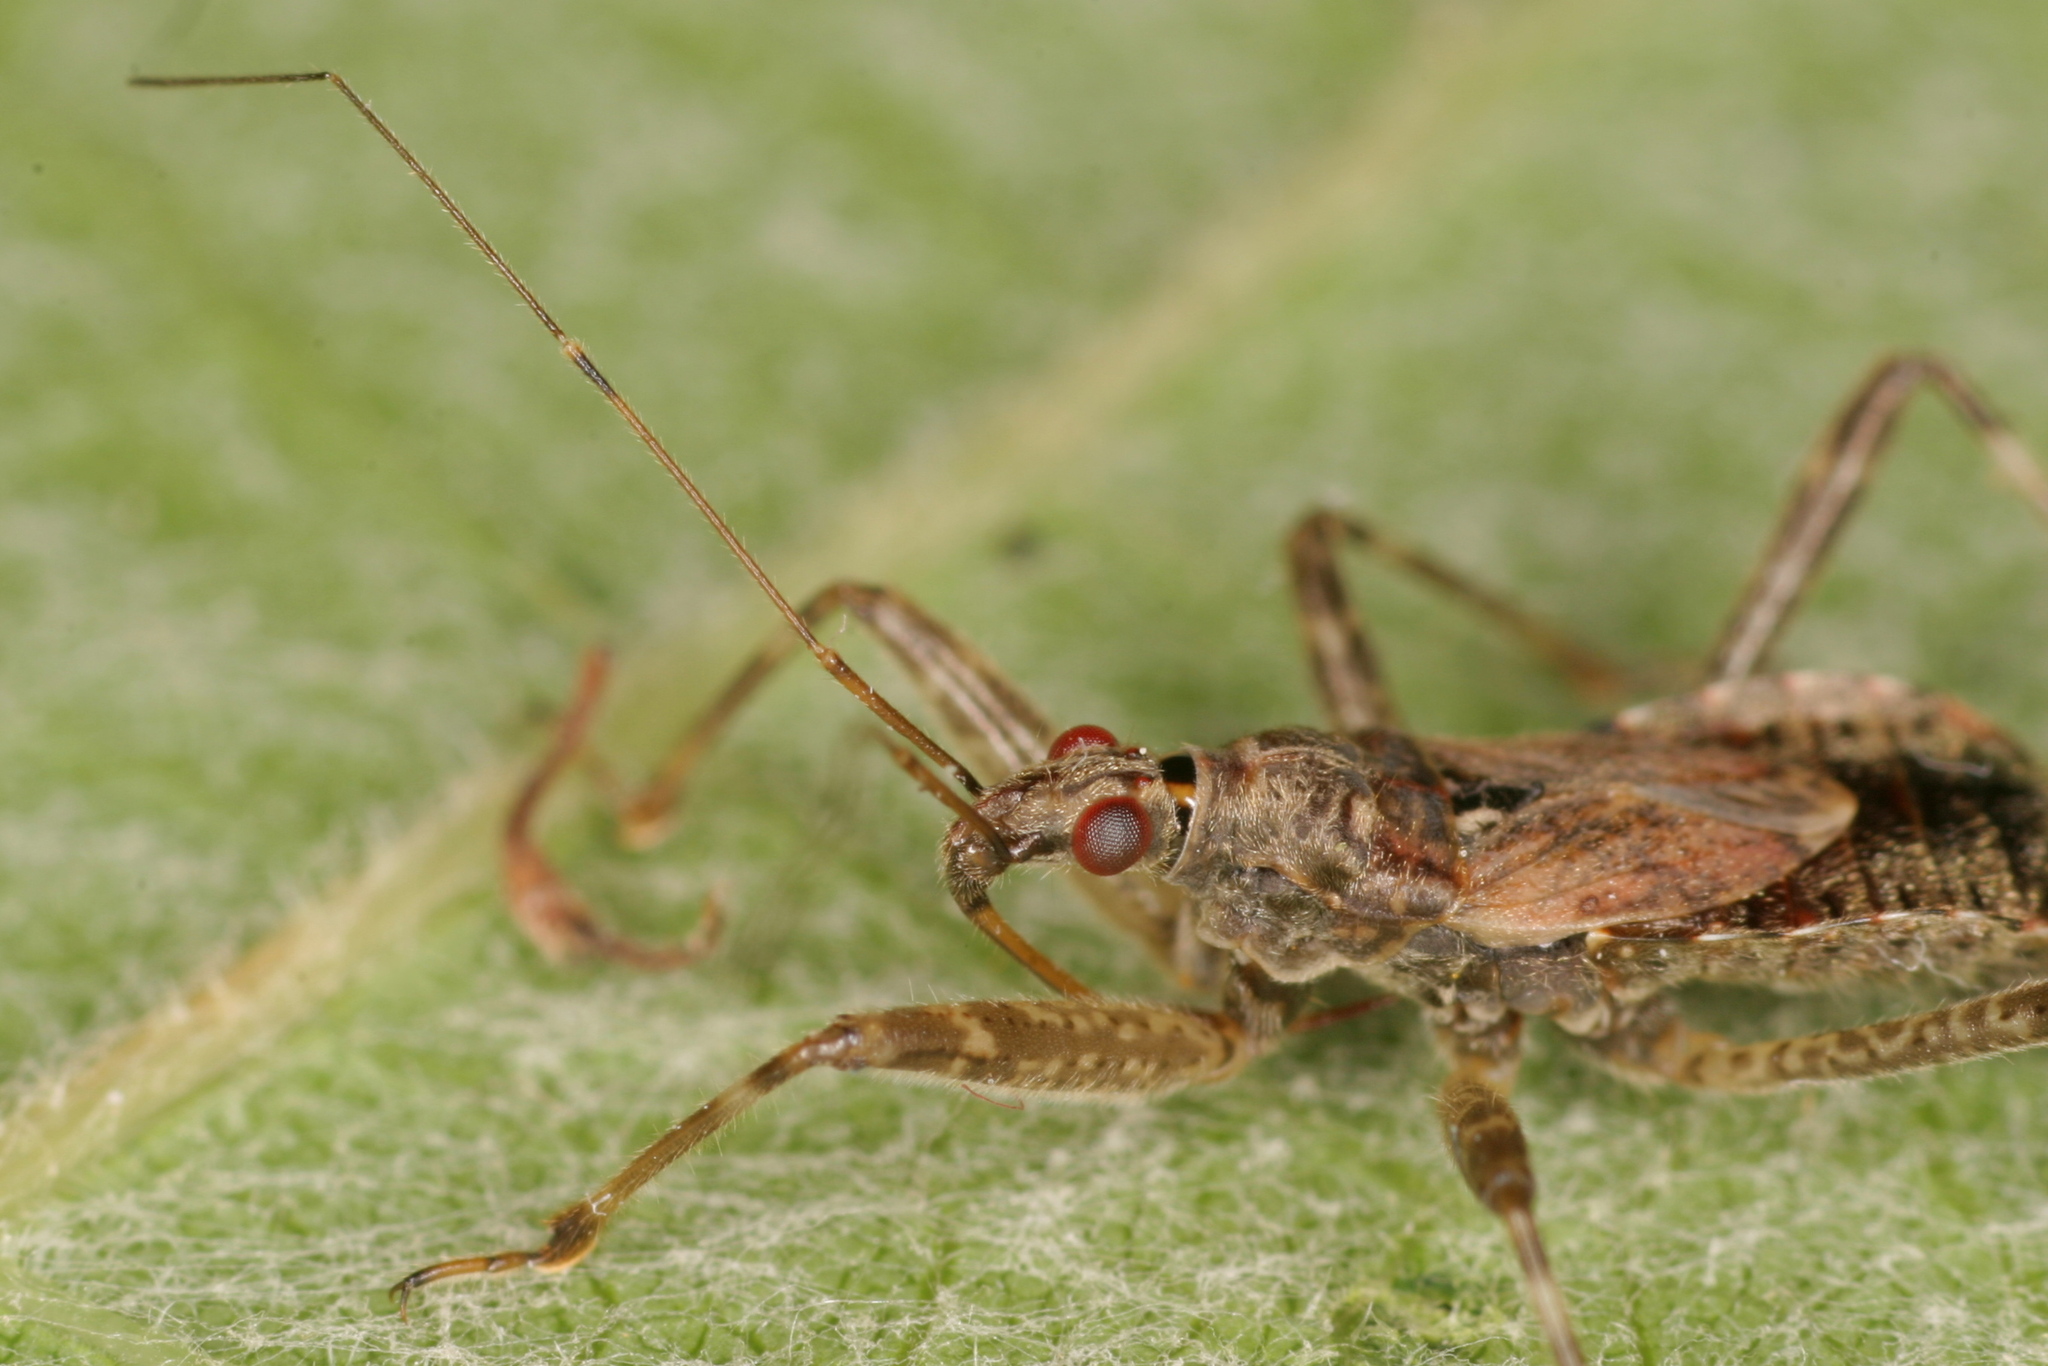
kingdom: Animalia
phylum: Arthropoda
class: Insecta
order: Hemiptera
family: Nabidae
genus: Himacerus
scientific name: Himacerus apterus
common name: Tree damsel bug
